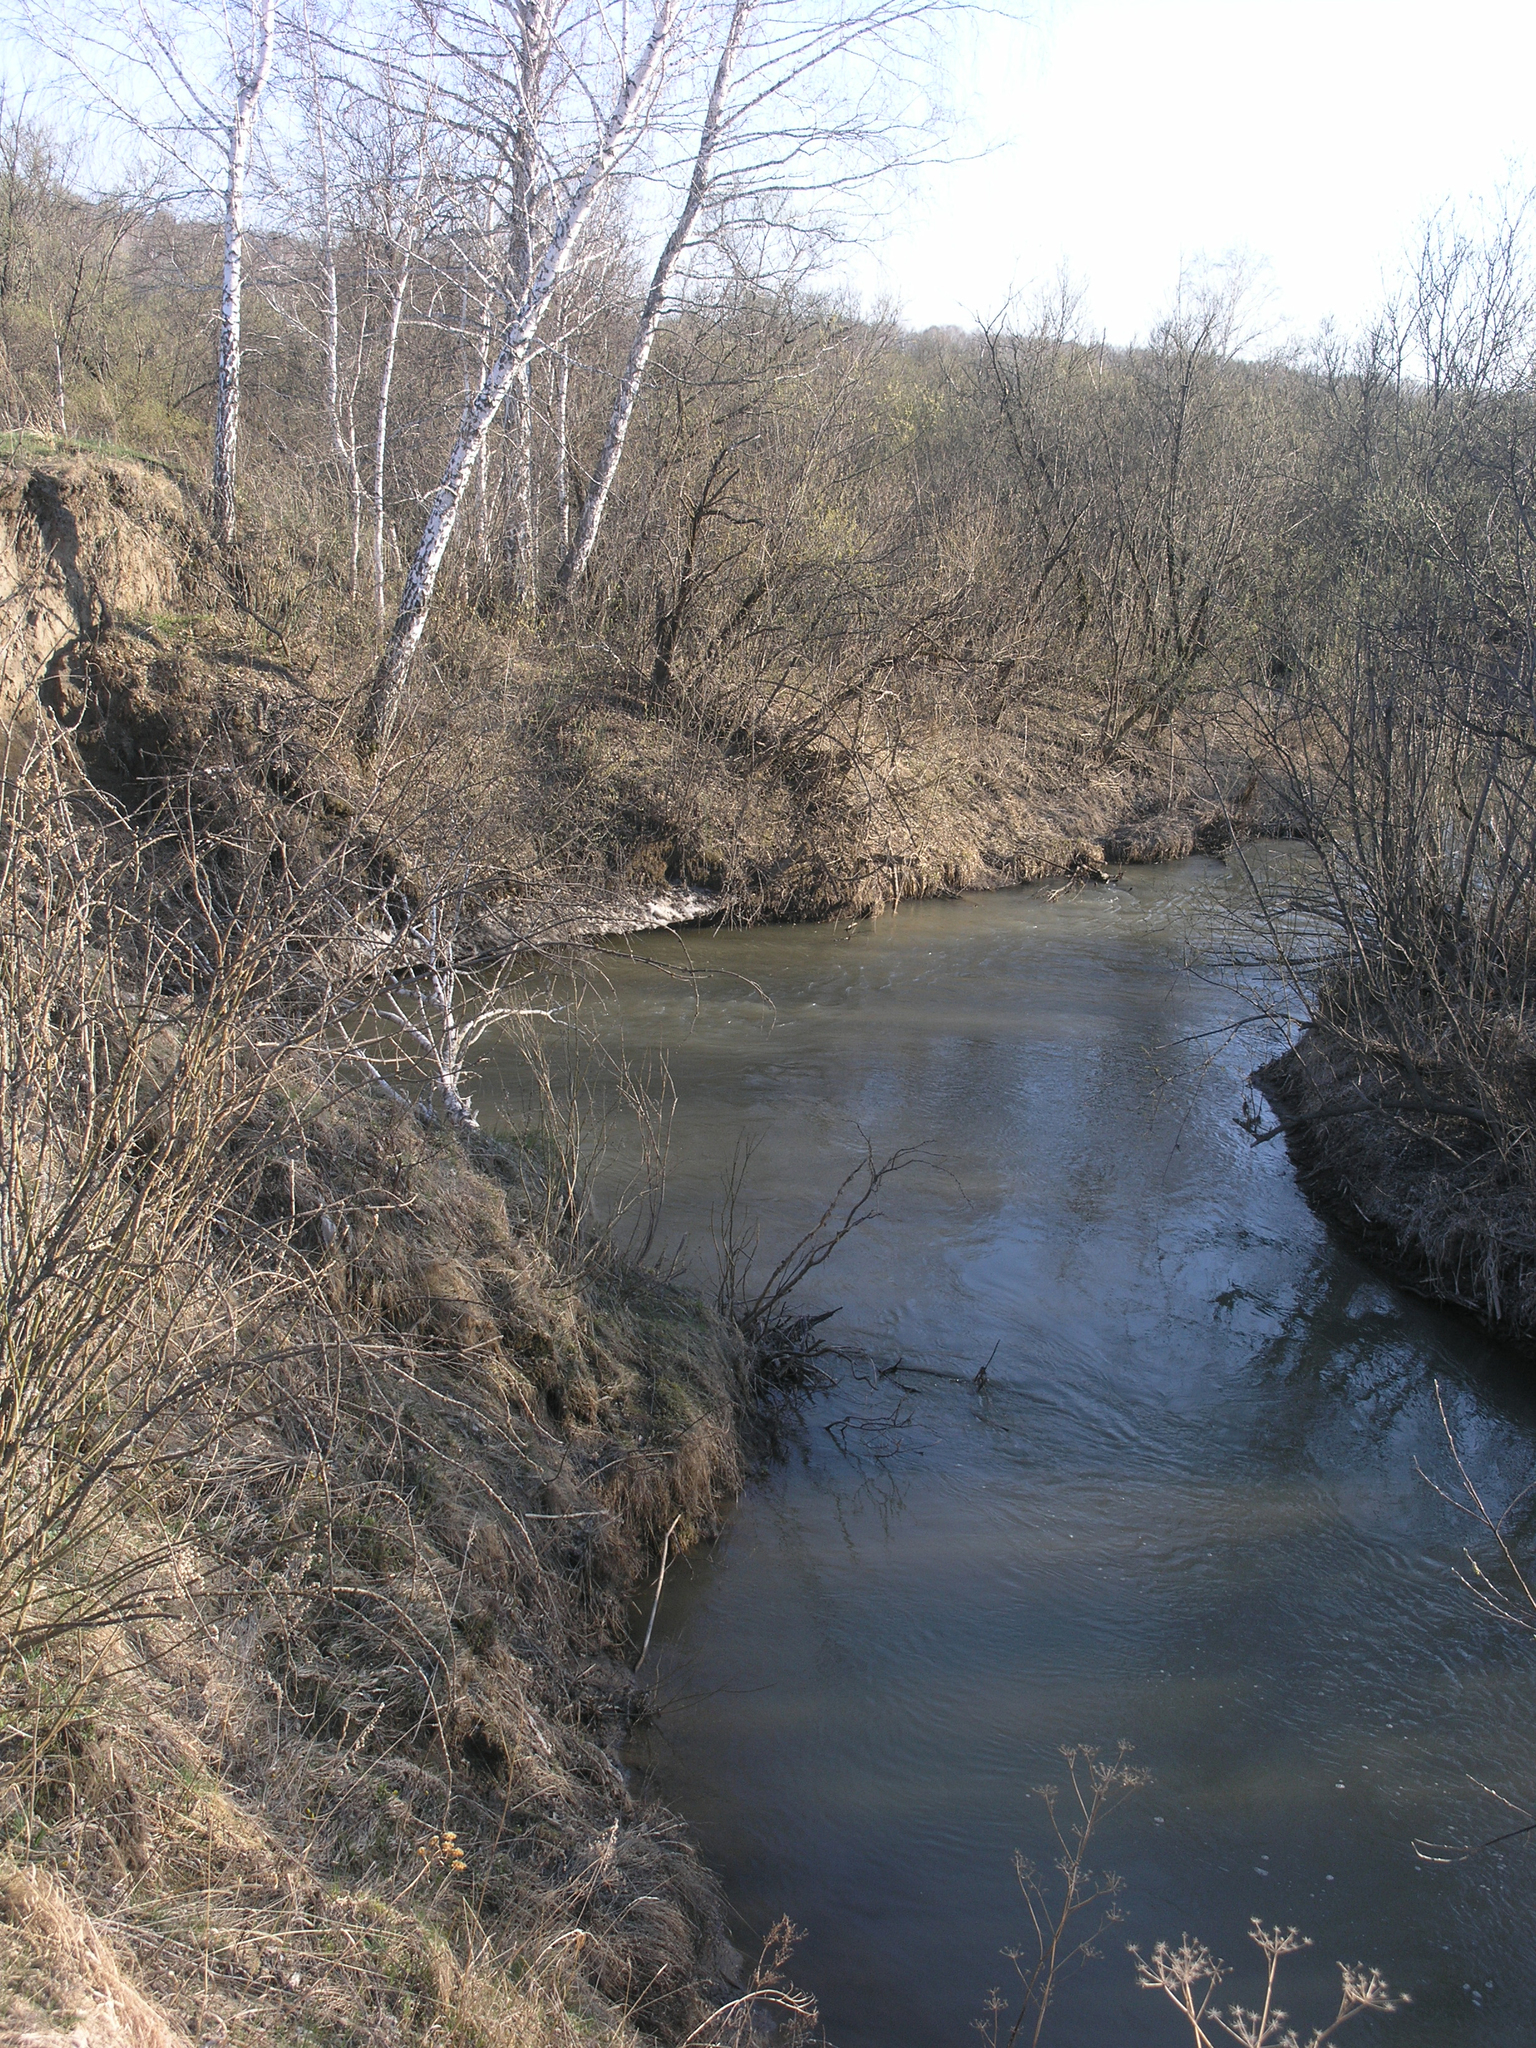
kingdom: Plantae
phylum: Tracheophyta
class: Magnoliopsida
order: Fagales
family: Betulaceae
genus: Betula
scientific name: Betula pendula
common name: Silver birch
